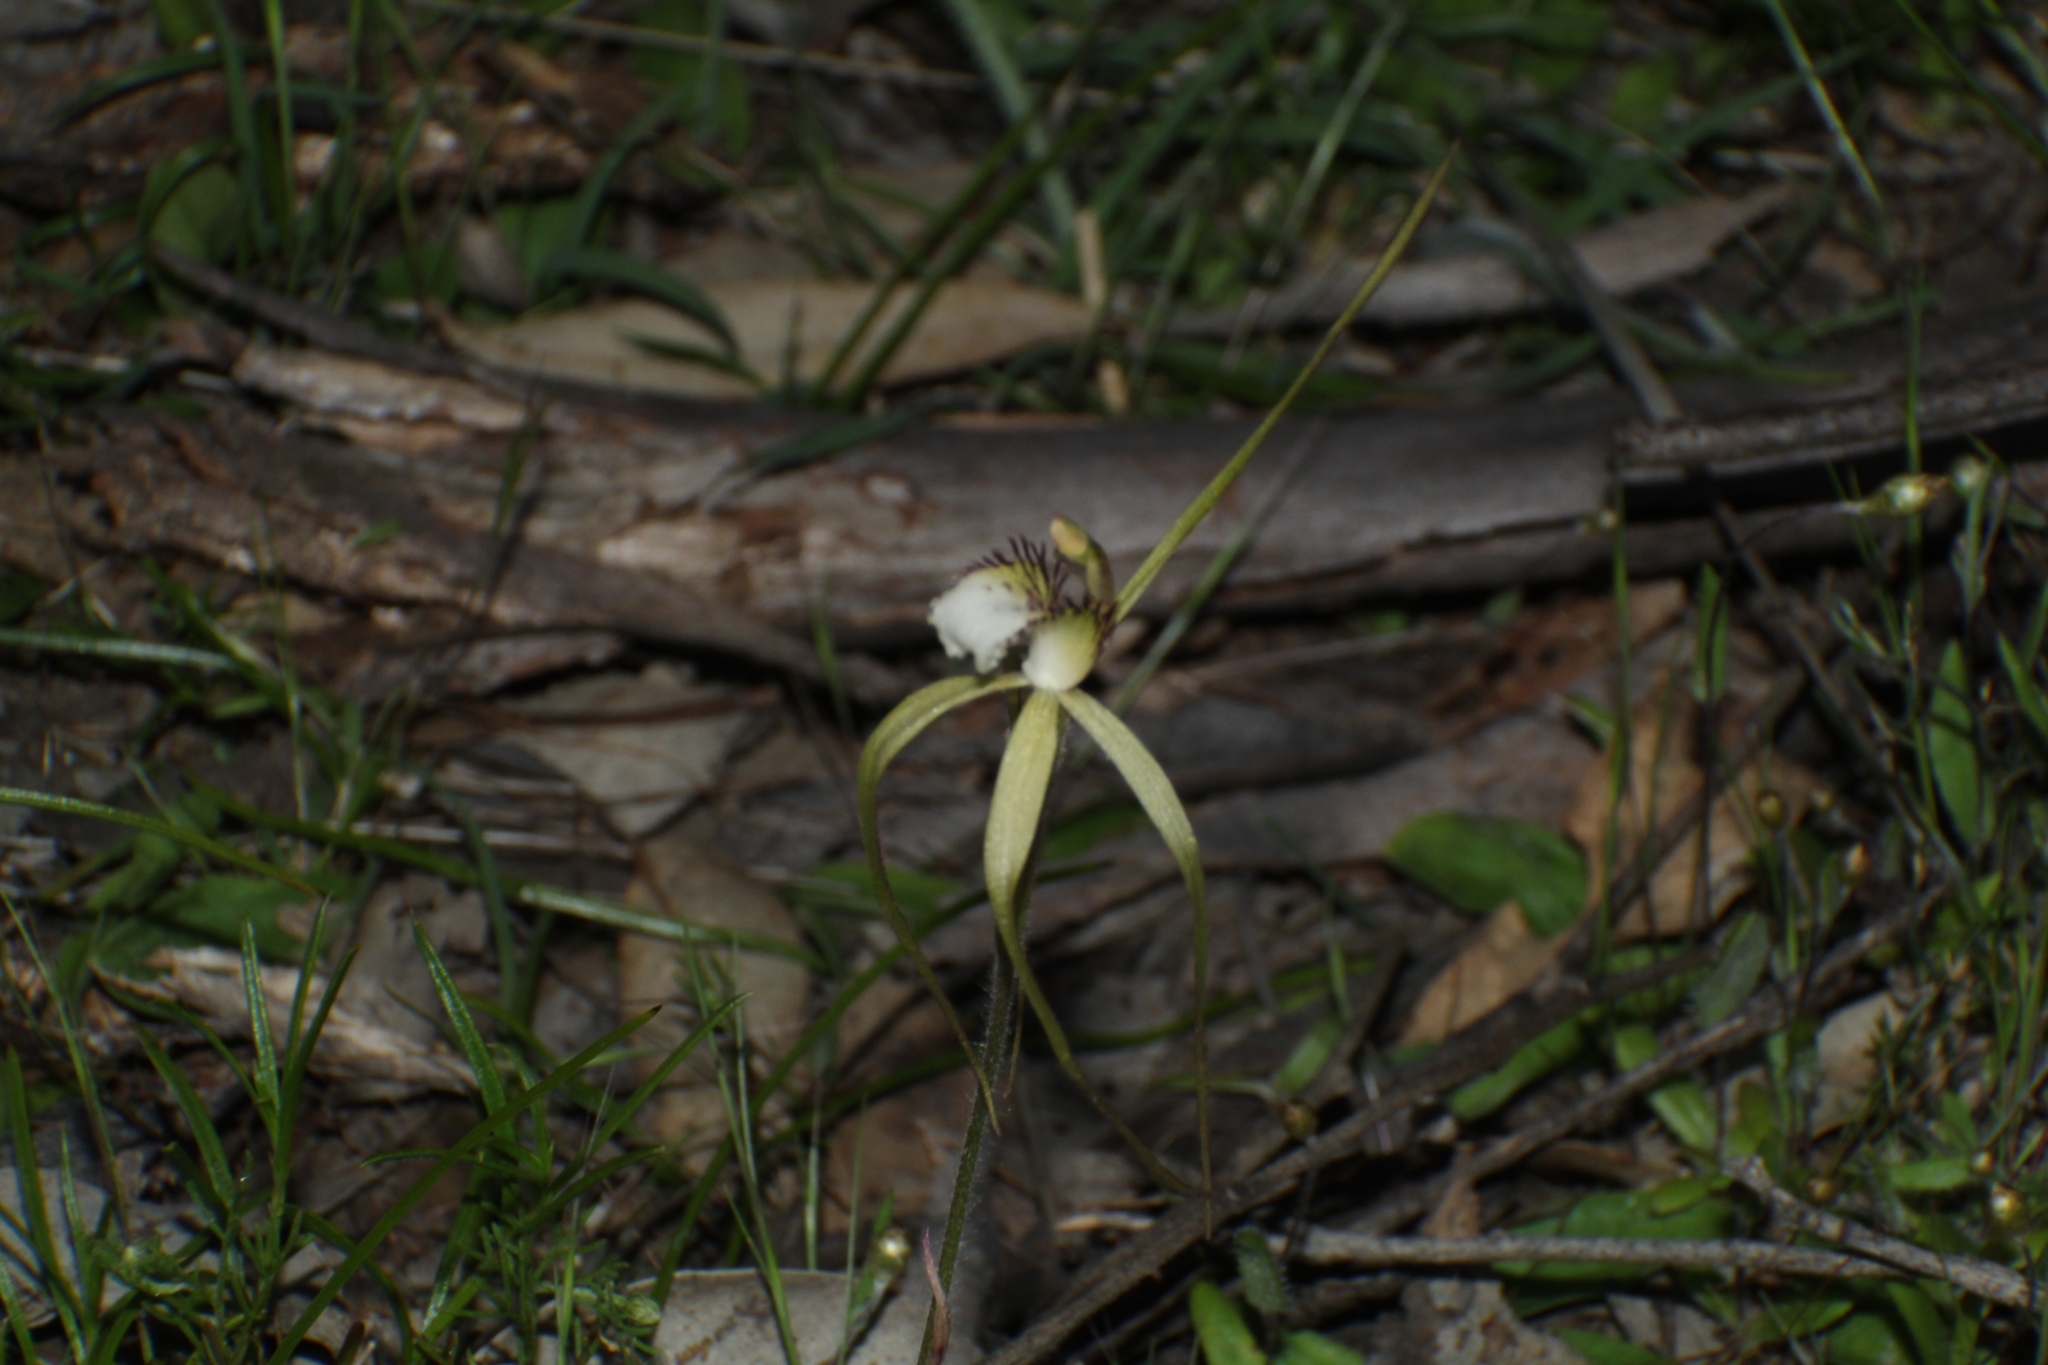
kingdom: Plantae
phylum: Tracheophyta
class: Liliopsida
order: Asparagales
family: Orchidaceae
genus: Caladenia
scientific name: Caladenia uliginosa
